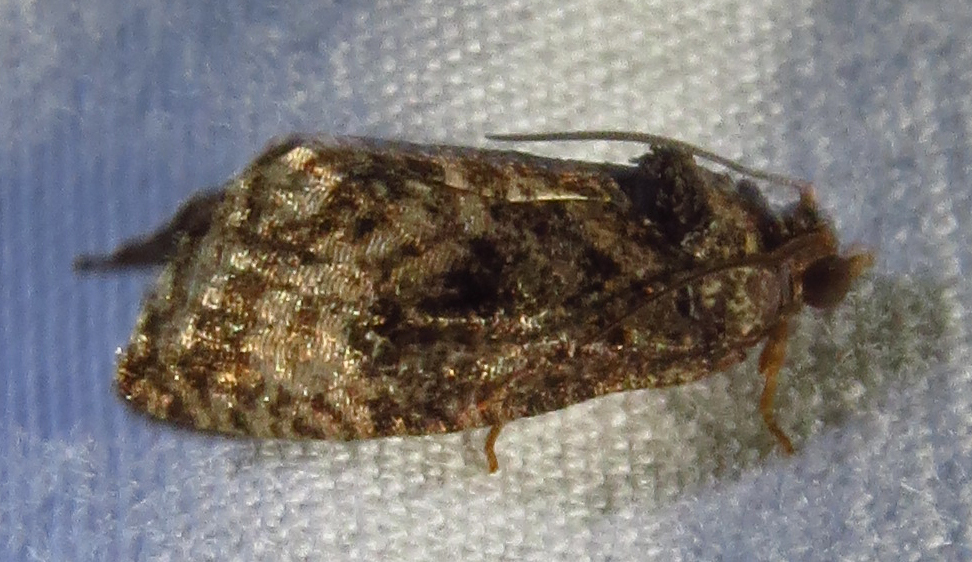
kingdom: Animalia
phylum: Arthropoda
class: Insecta
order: Lepidoptera
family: Tortricidae
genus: Gymnandrosoma
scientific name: Gymnandrosoma punctidiscanum
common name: Dotted ecdytolopha moth
